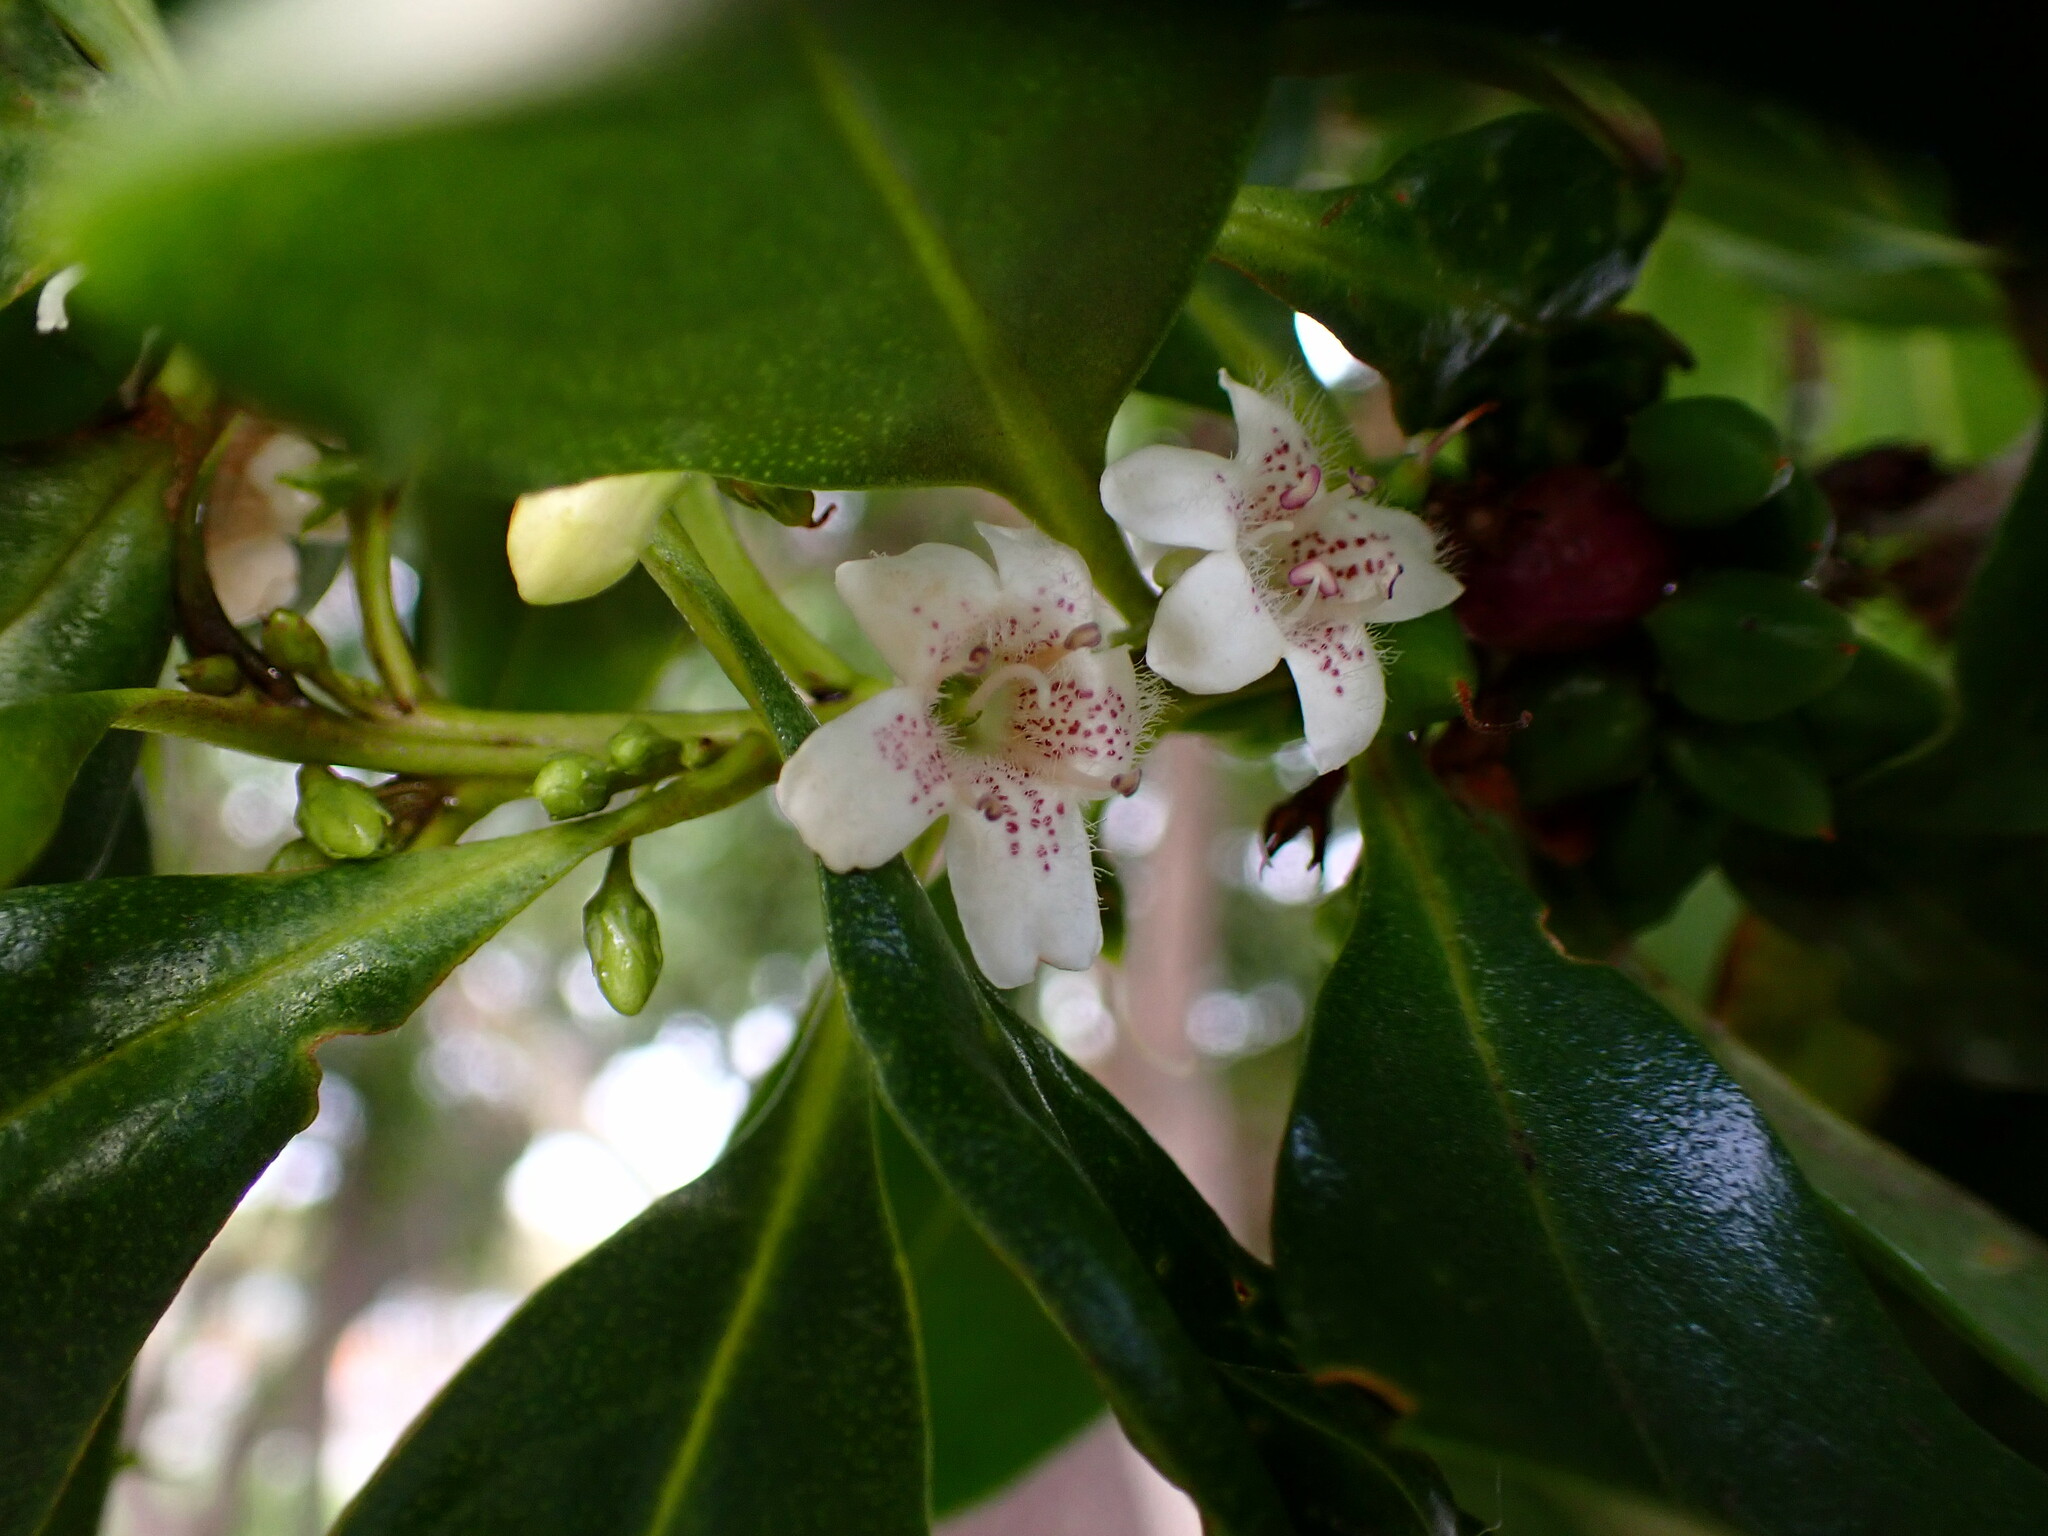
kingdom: Plantae
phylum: Tracheophyta
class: Magnoliopsida
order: Lamiales
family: Scrophulariaceae
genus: Myoporum
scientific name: Myoporum laetum
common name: Ngaio tree
